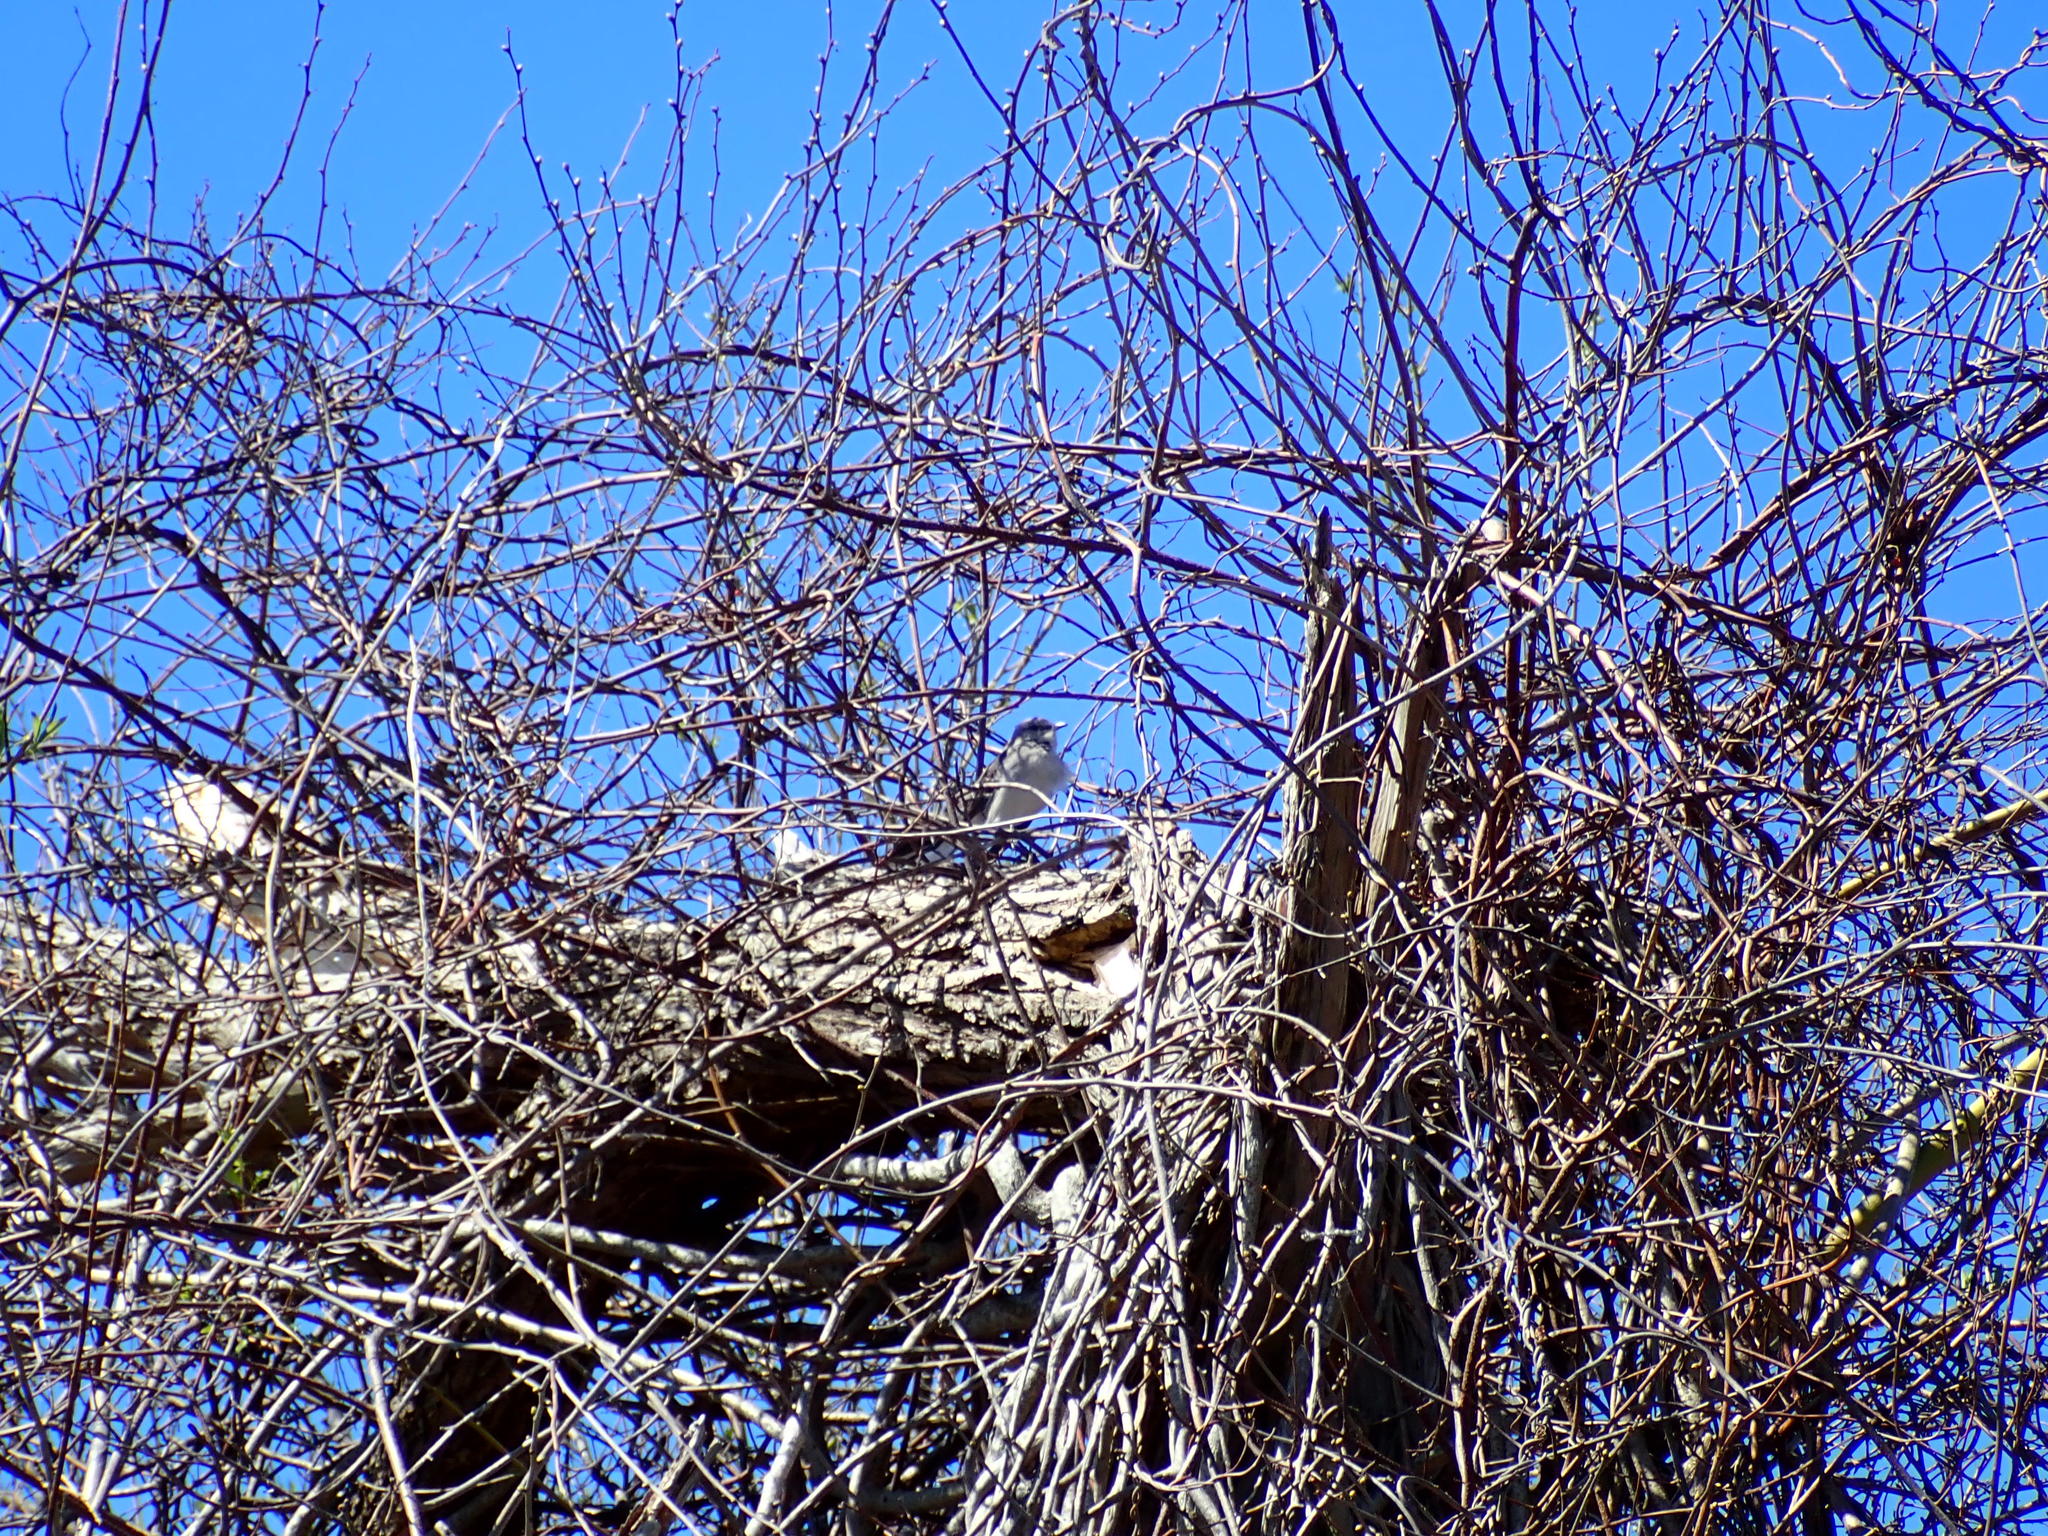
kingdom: Animalia
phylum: Chordata
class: Aves
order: Passeriformes
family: Mimidae
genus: Mimus
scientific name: Mimus polyglottos
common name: Northern mockingbird
